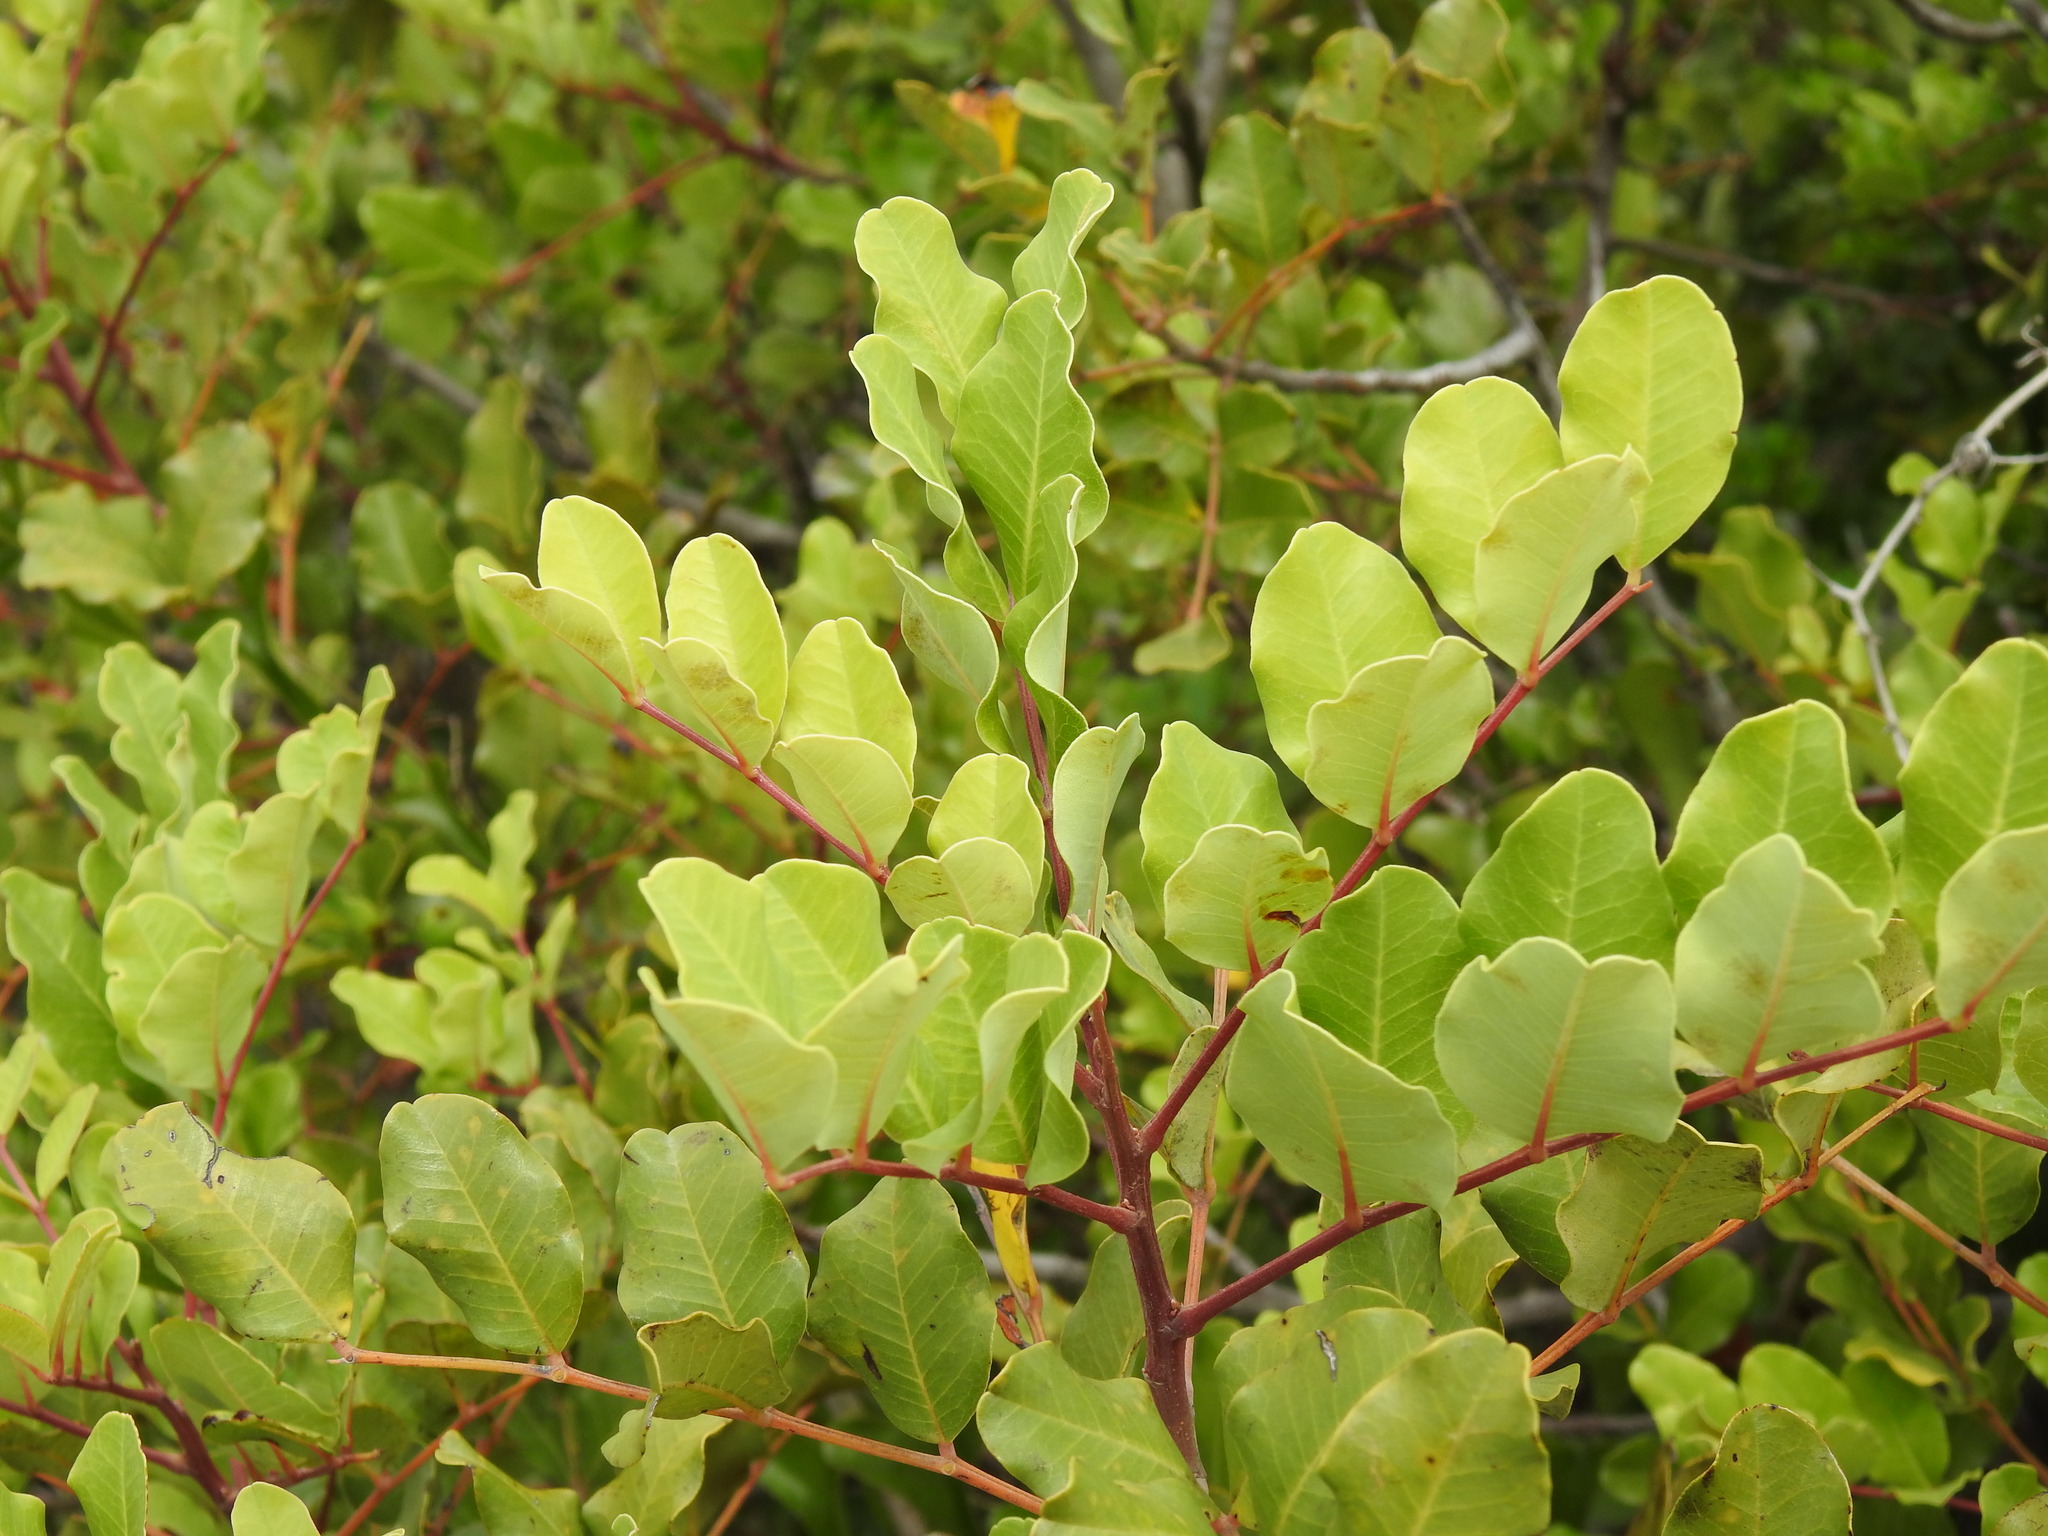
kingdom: Plantae
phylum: Tracheophyta
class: Magnoliopsida
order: Fabales
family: Fabaceae
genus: Ceratonia
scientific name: Ceratonia siliqua
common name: Carob
